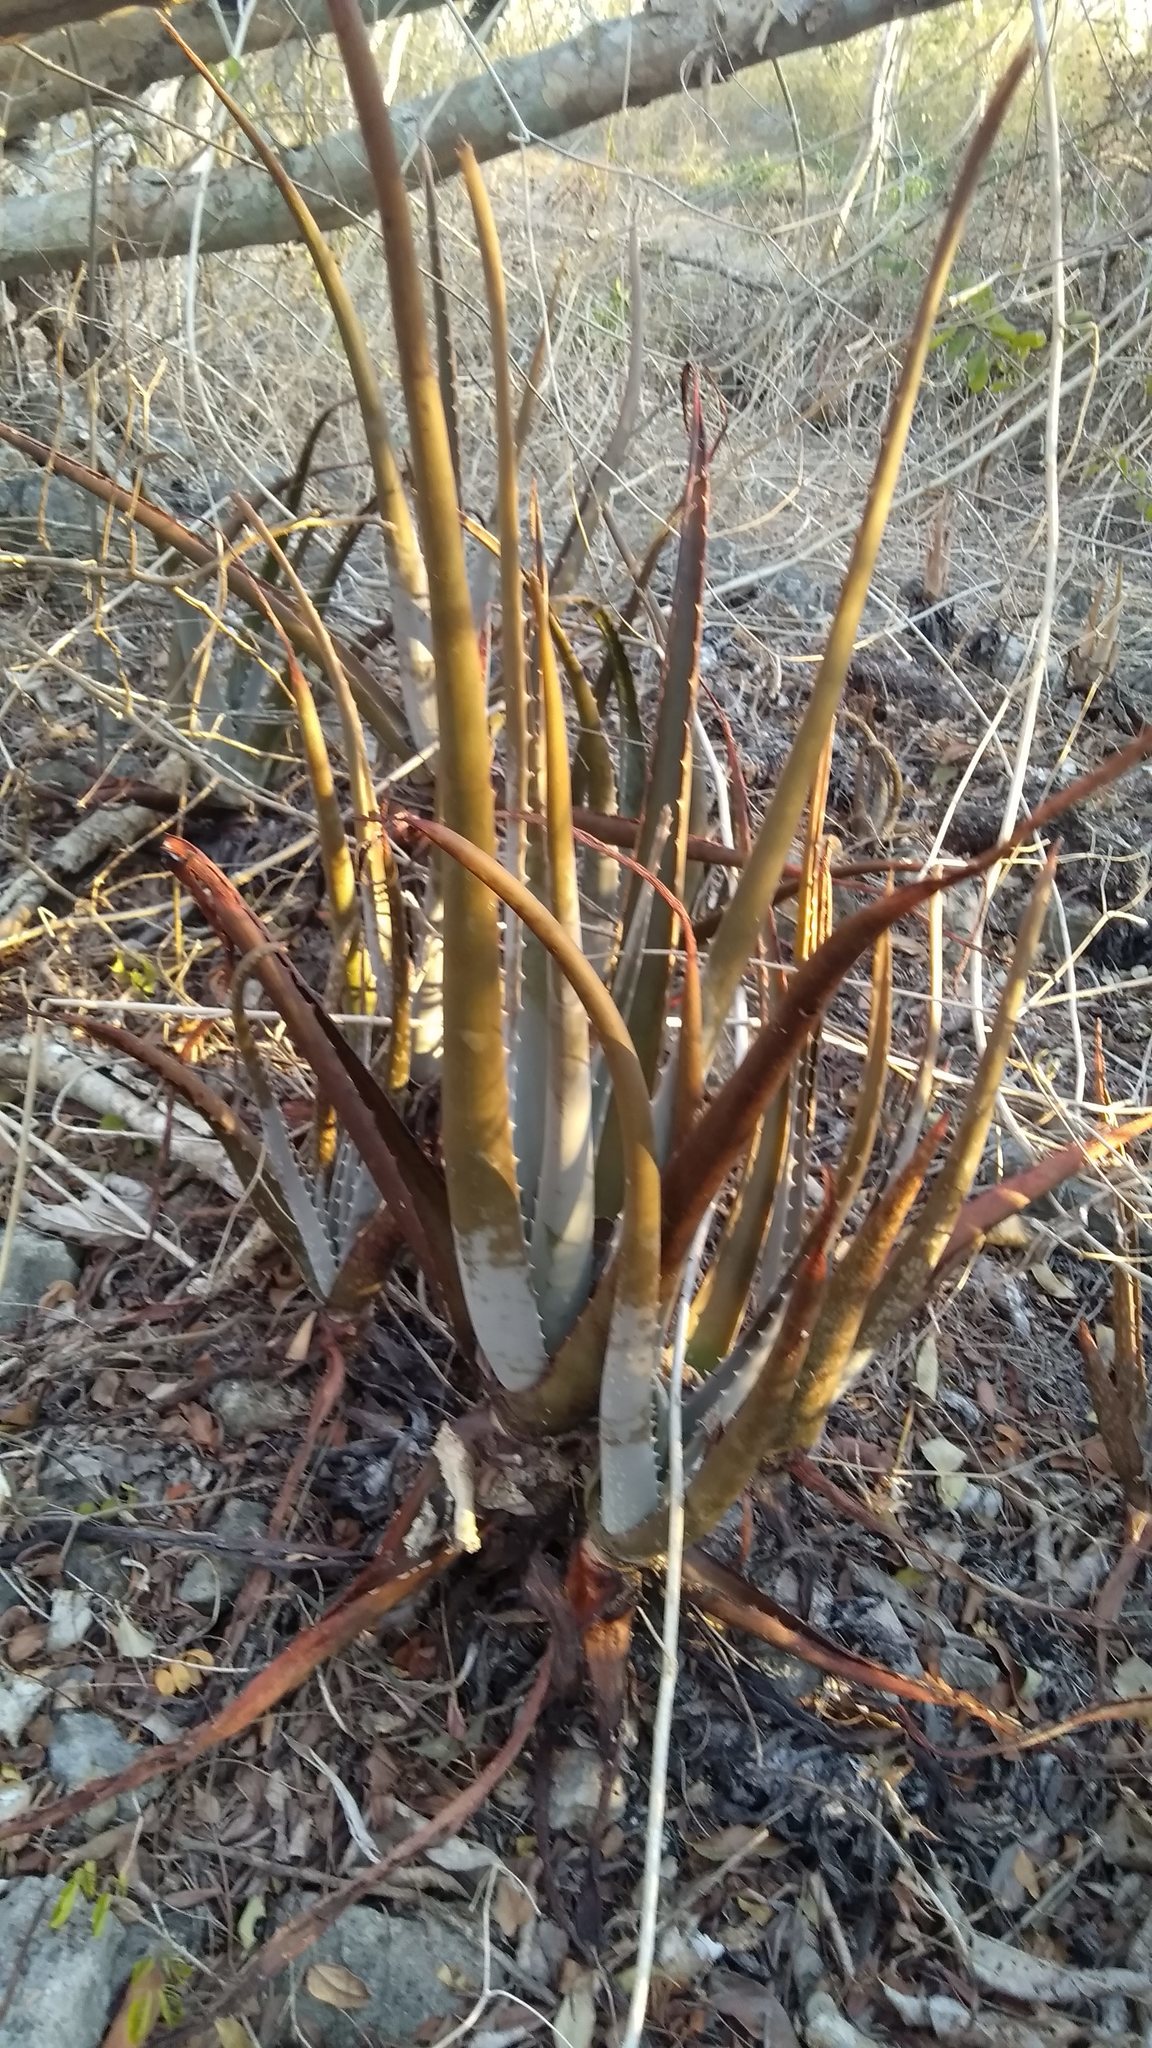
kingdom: Plantae
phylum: Tracheophyta
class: Liliopsida
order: Asparagales
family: Asphodelaceae
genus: Aloe
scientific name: Aloe vera
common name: Barbados aloe
